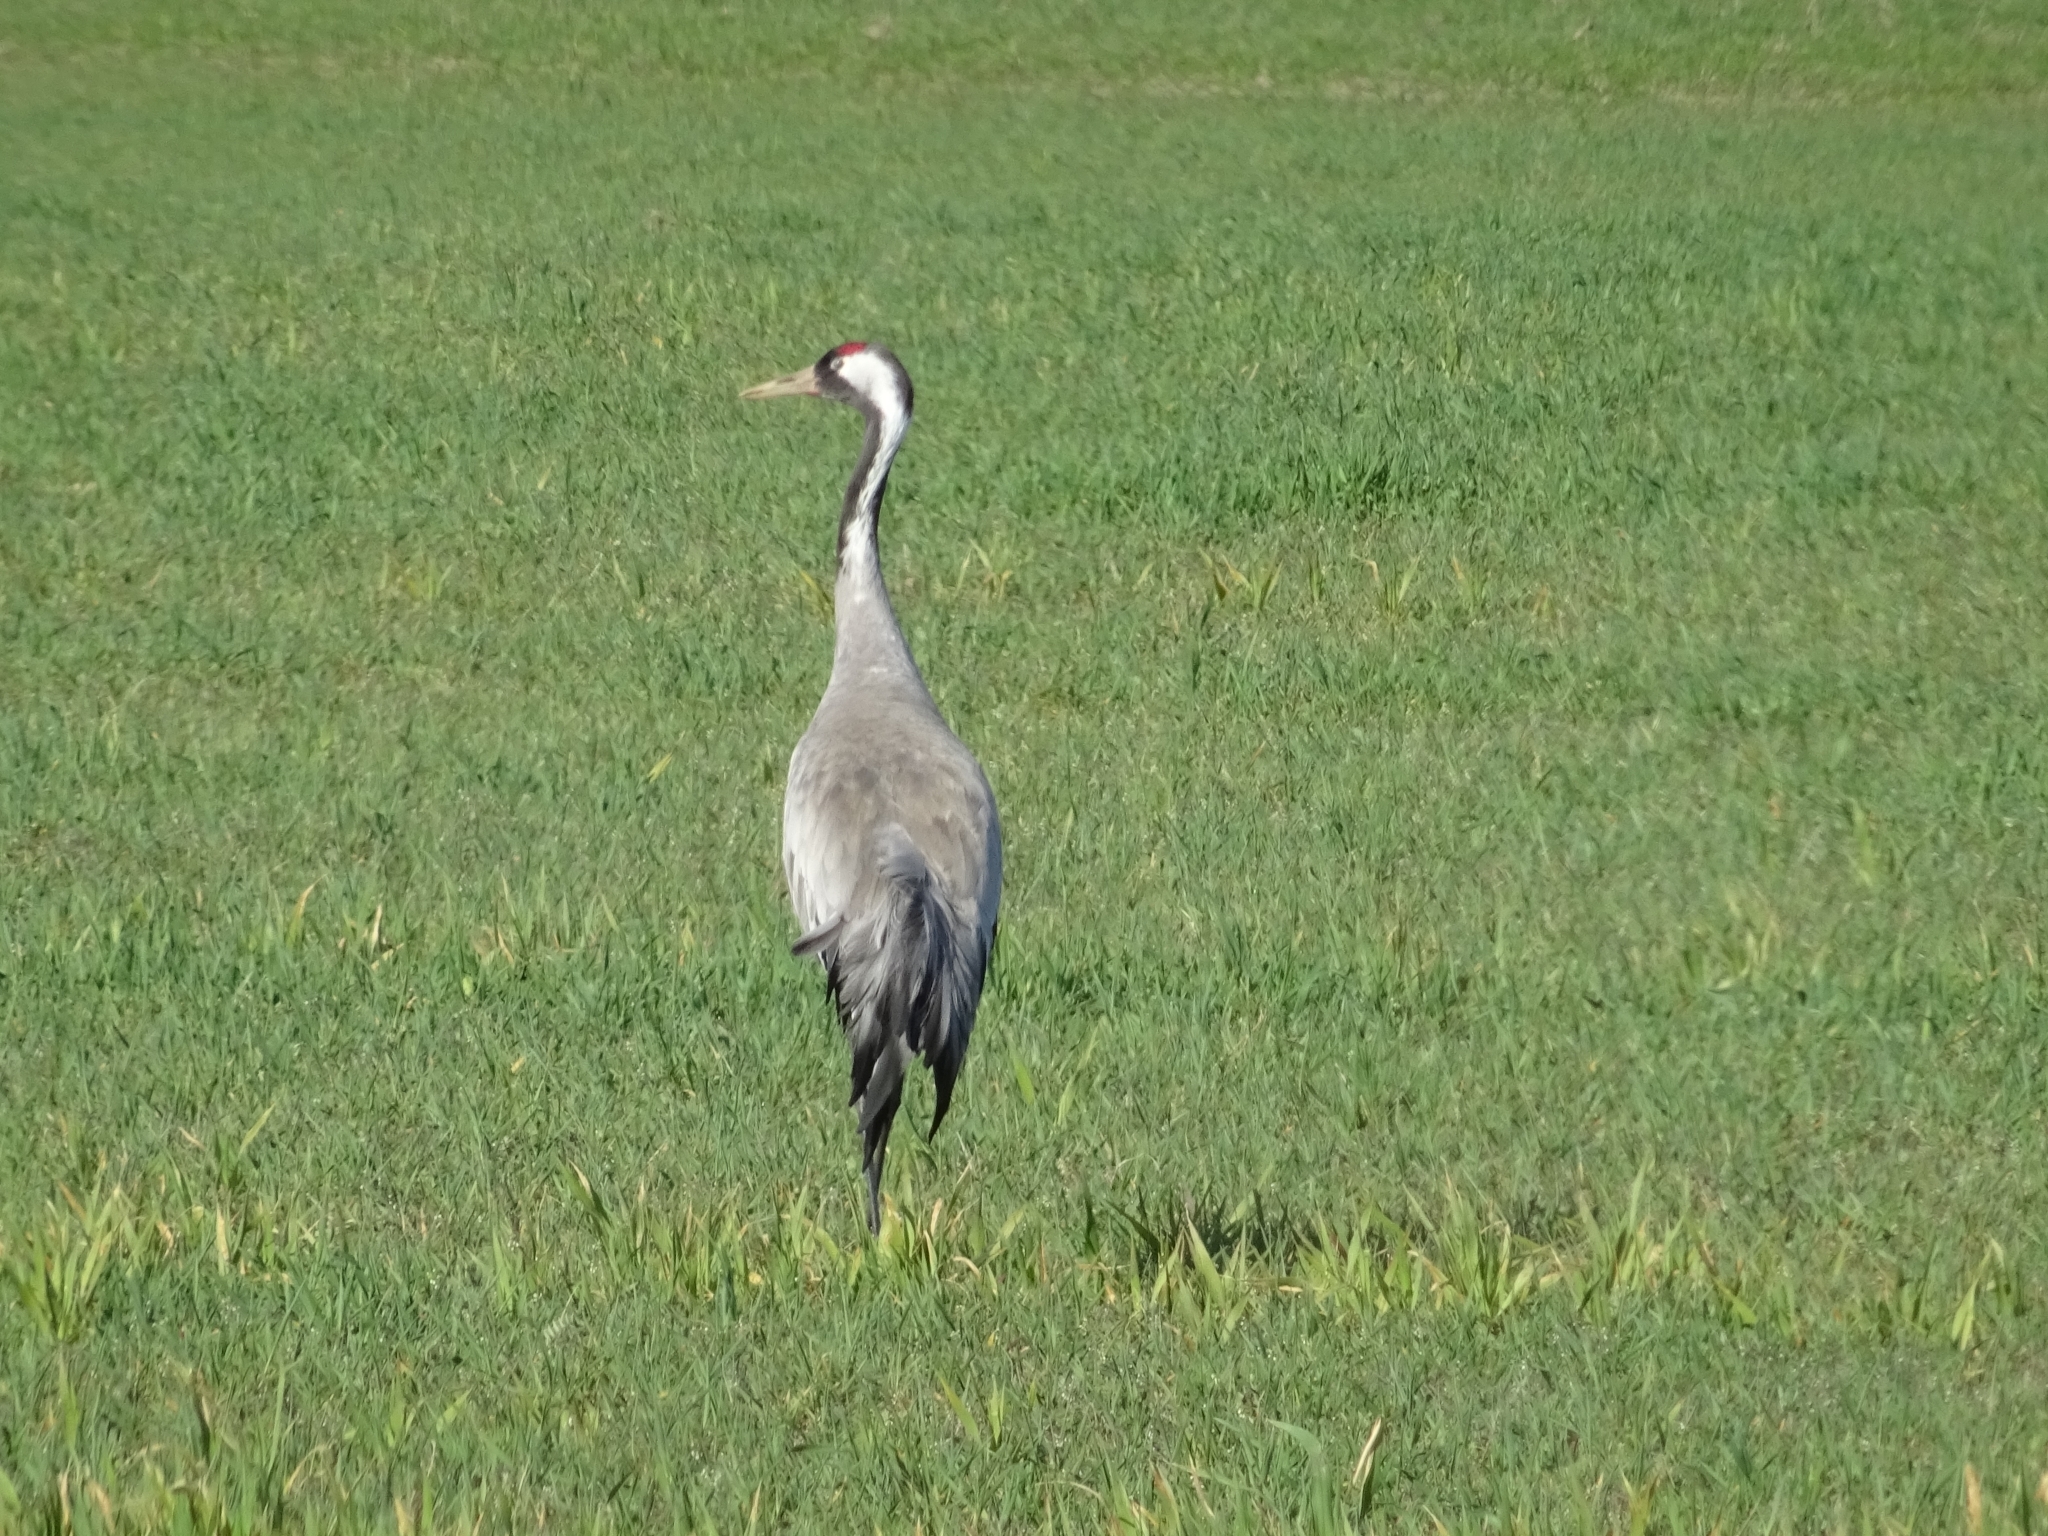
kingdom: Animalia
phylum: Chordata
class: Aves
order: Gruiformes
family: Gruidae
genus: Grus
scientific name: Grus grus
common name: Common crane
